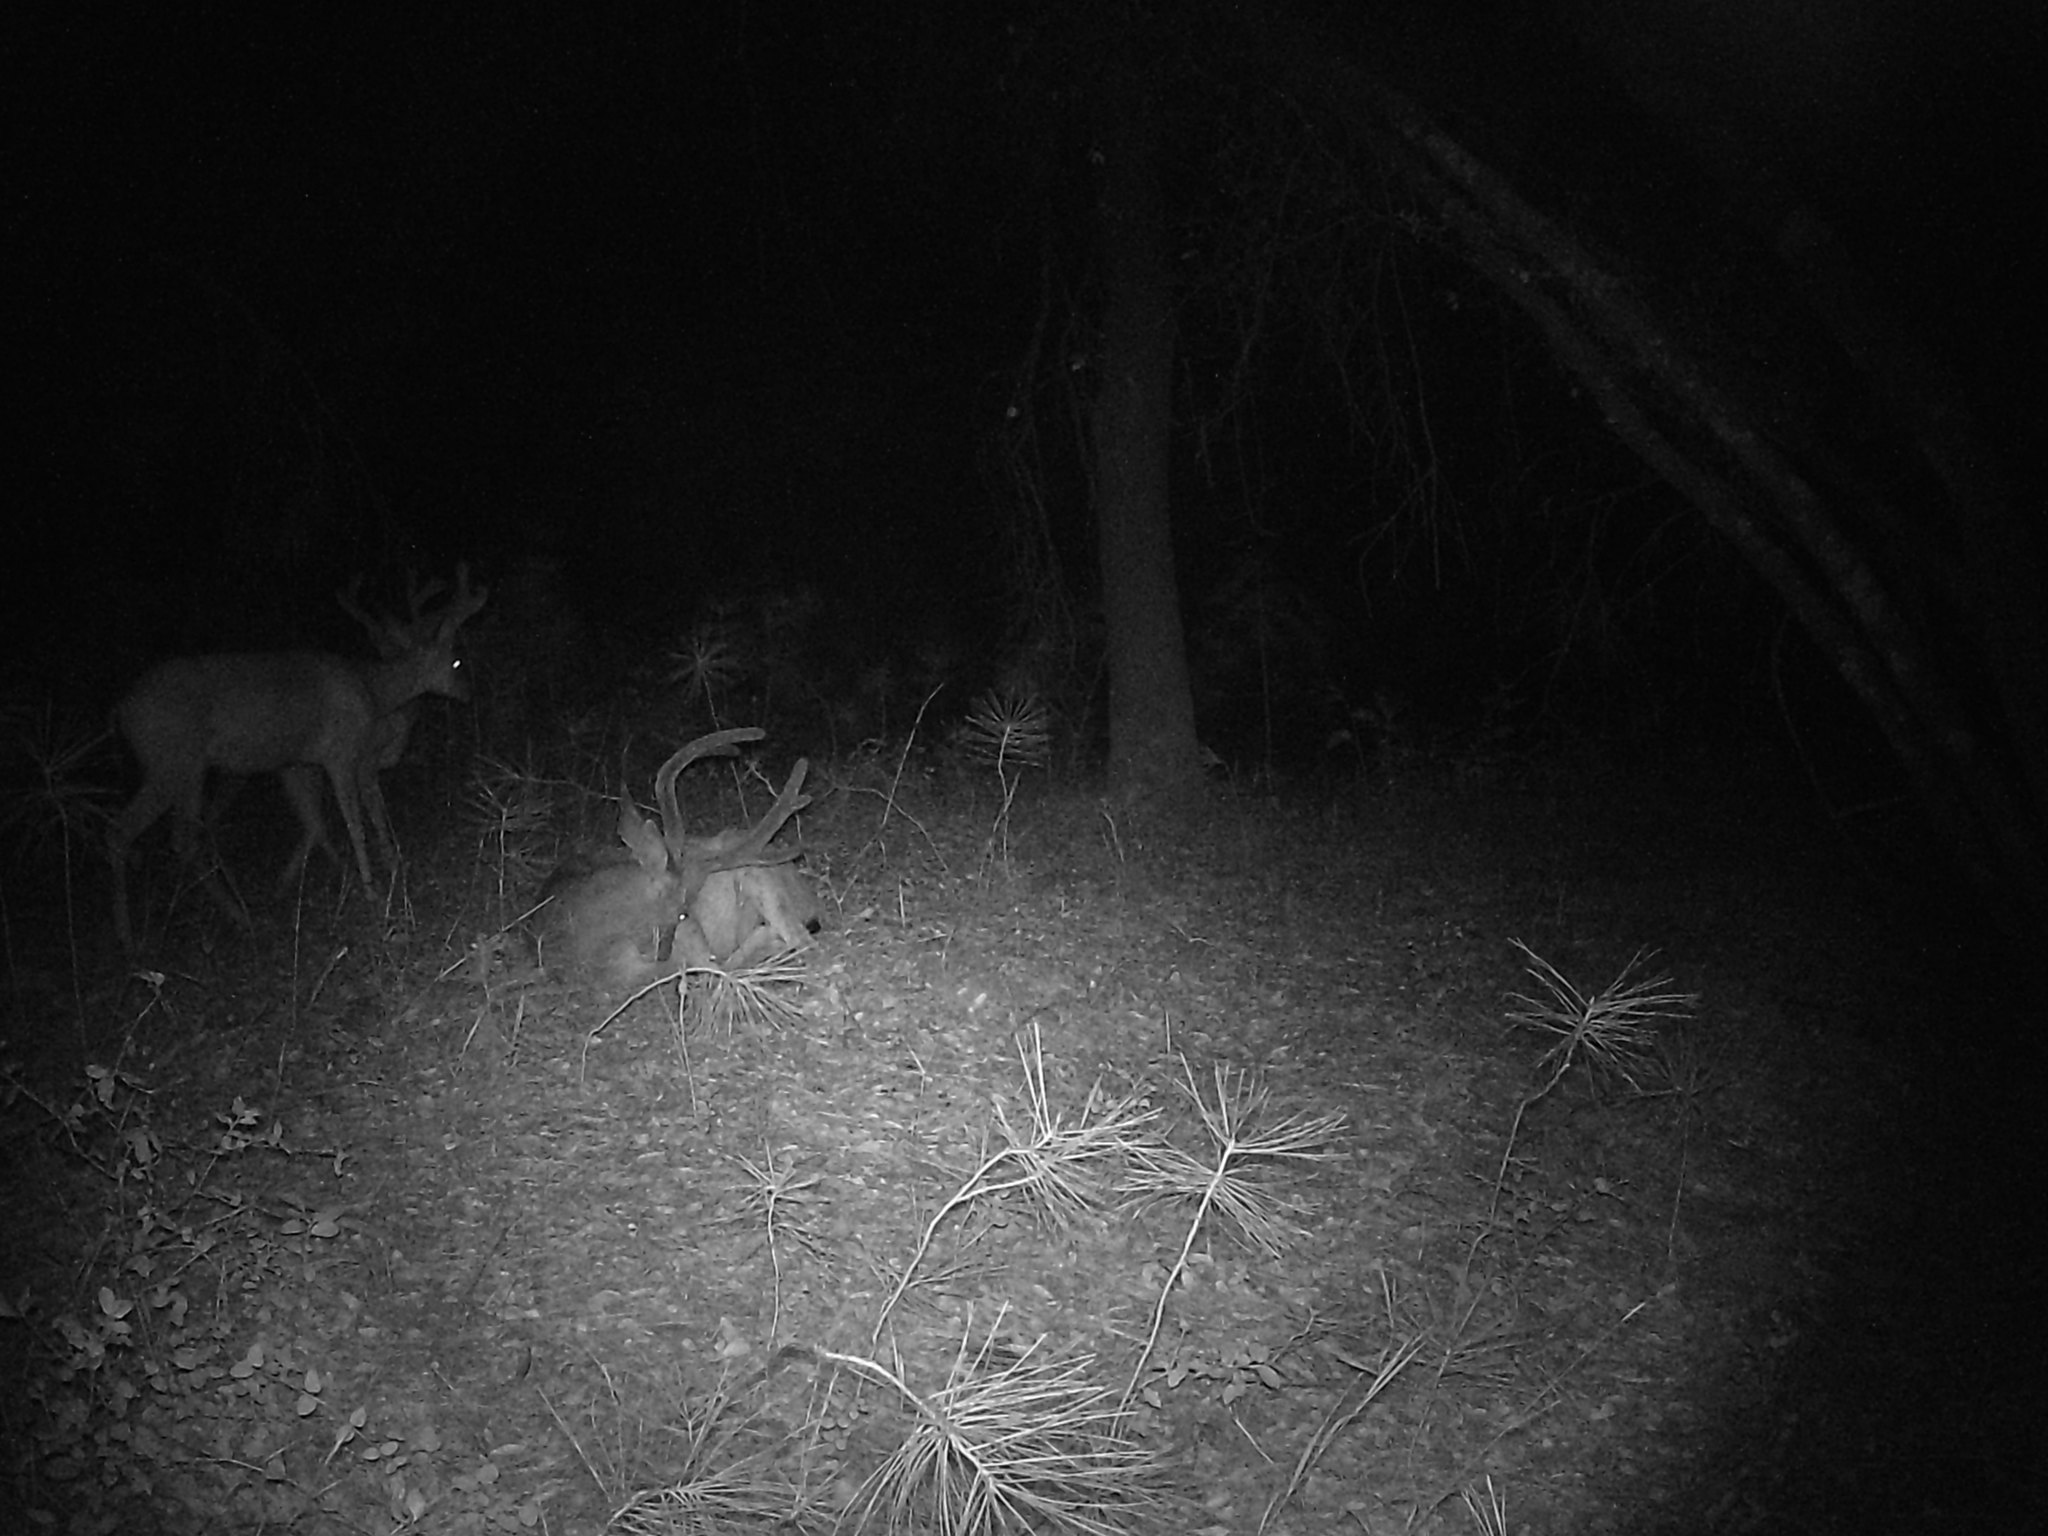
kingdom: Animalia
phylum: Chordata
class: Mammalia
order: Artiodactyla
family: Cervidae
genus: Odocoileus
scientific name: Odocoileus hemionus
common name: Mule deer
